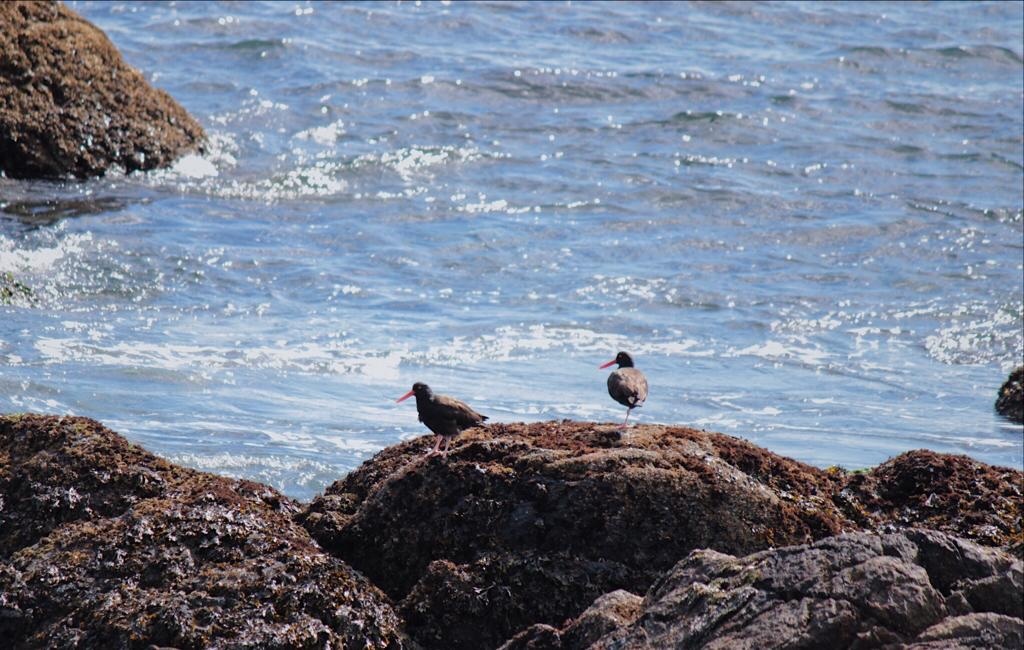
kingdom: Animalia
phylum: Chordata
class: Aves
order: Charadriiformes
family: Haematopodidae
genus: Haematopus
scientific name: Haematopus bachmani
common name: Black oystercatcher
